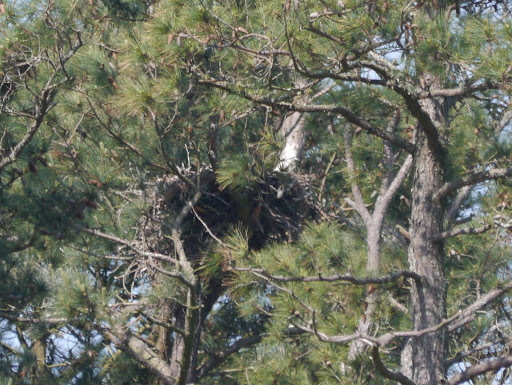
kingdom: Animalia
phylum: Chordata
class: Aves
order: Accipitriformes
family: Accipitridae
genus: Haliaeetus
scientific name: Haliaeetus leucocephalus
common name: Bald eagle
